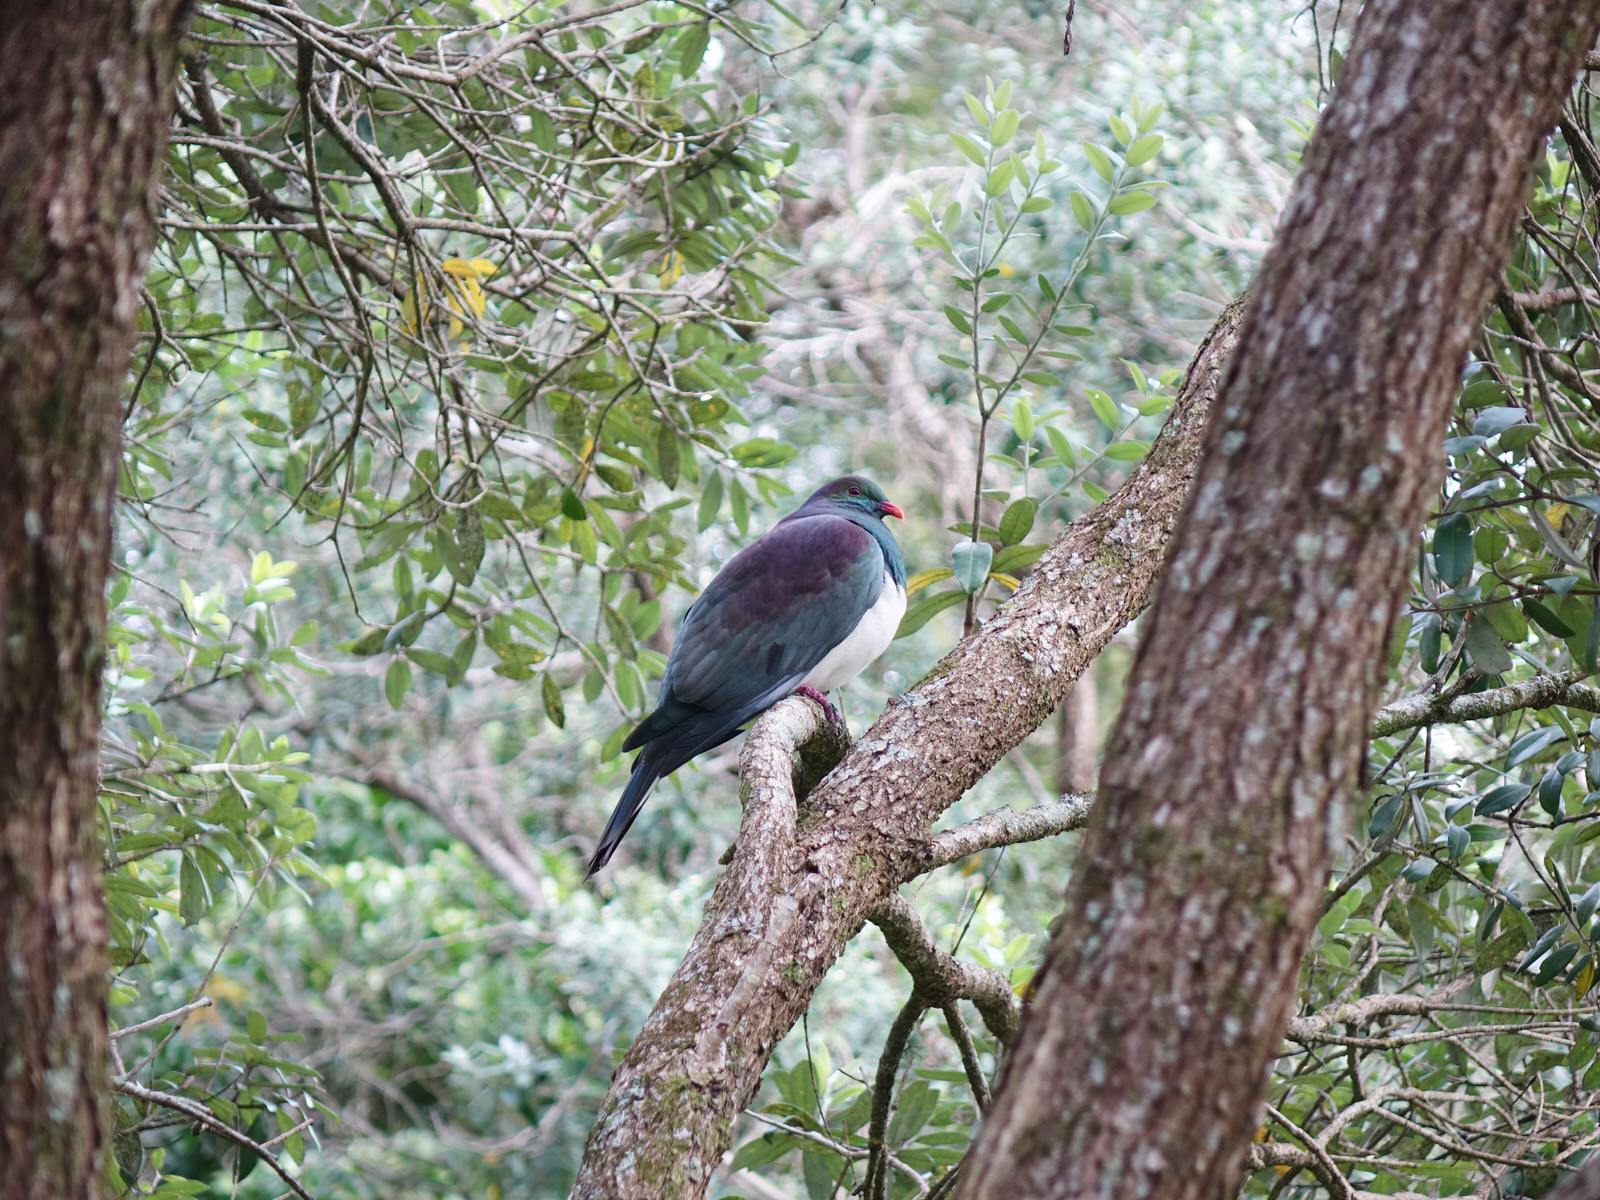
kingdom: Animalia
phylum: Chordata
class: Aves
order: Columbiformes
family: Columbidae
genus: Hemiphaga
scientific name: Hemiphaga novaeseelandiae
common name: New zealand pigeon
